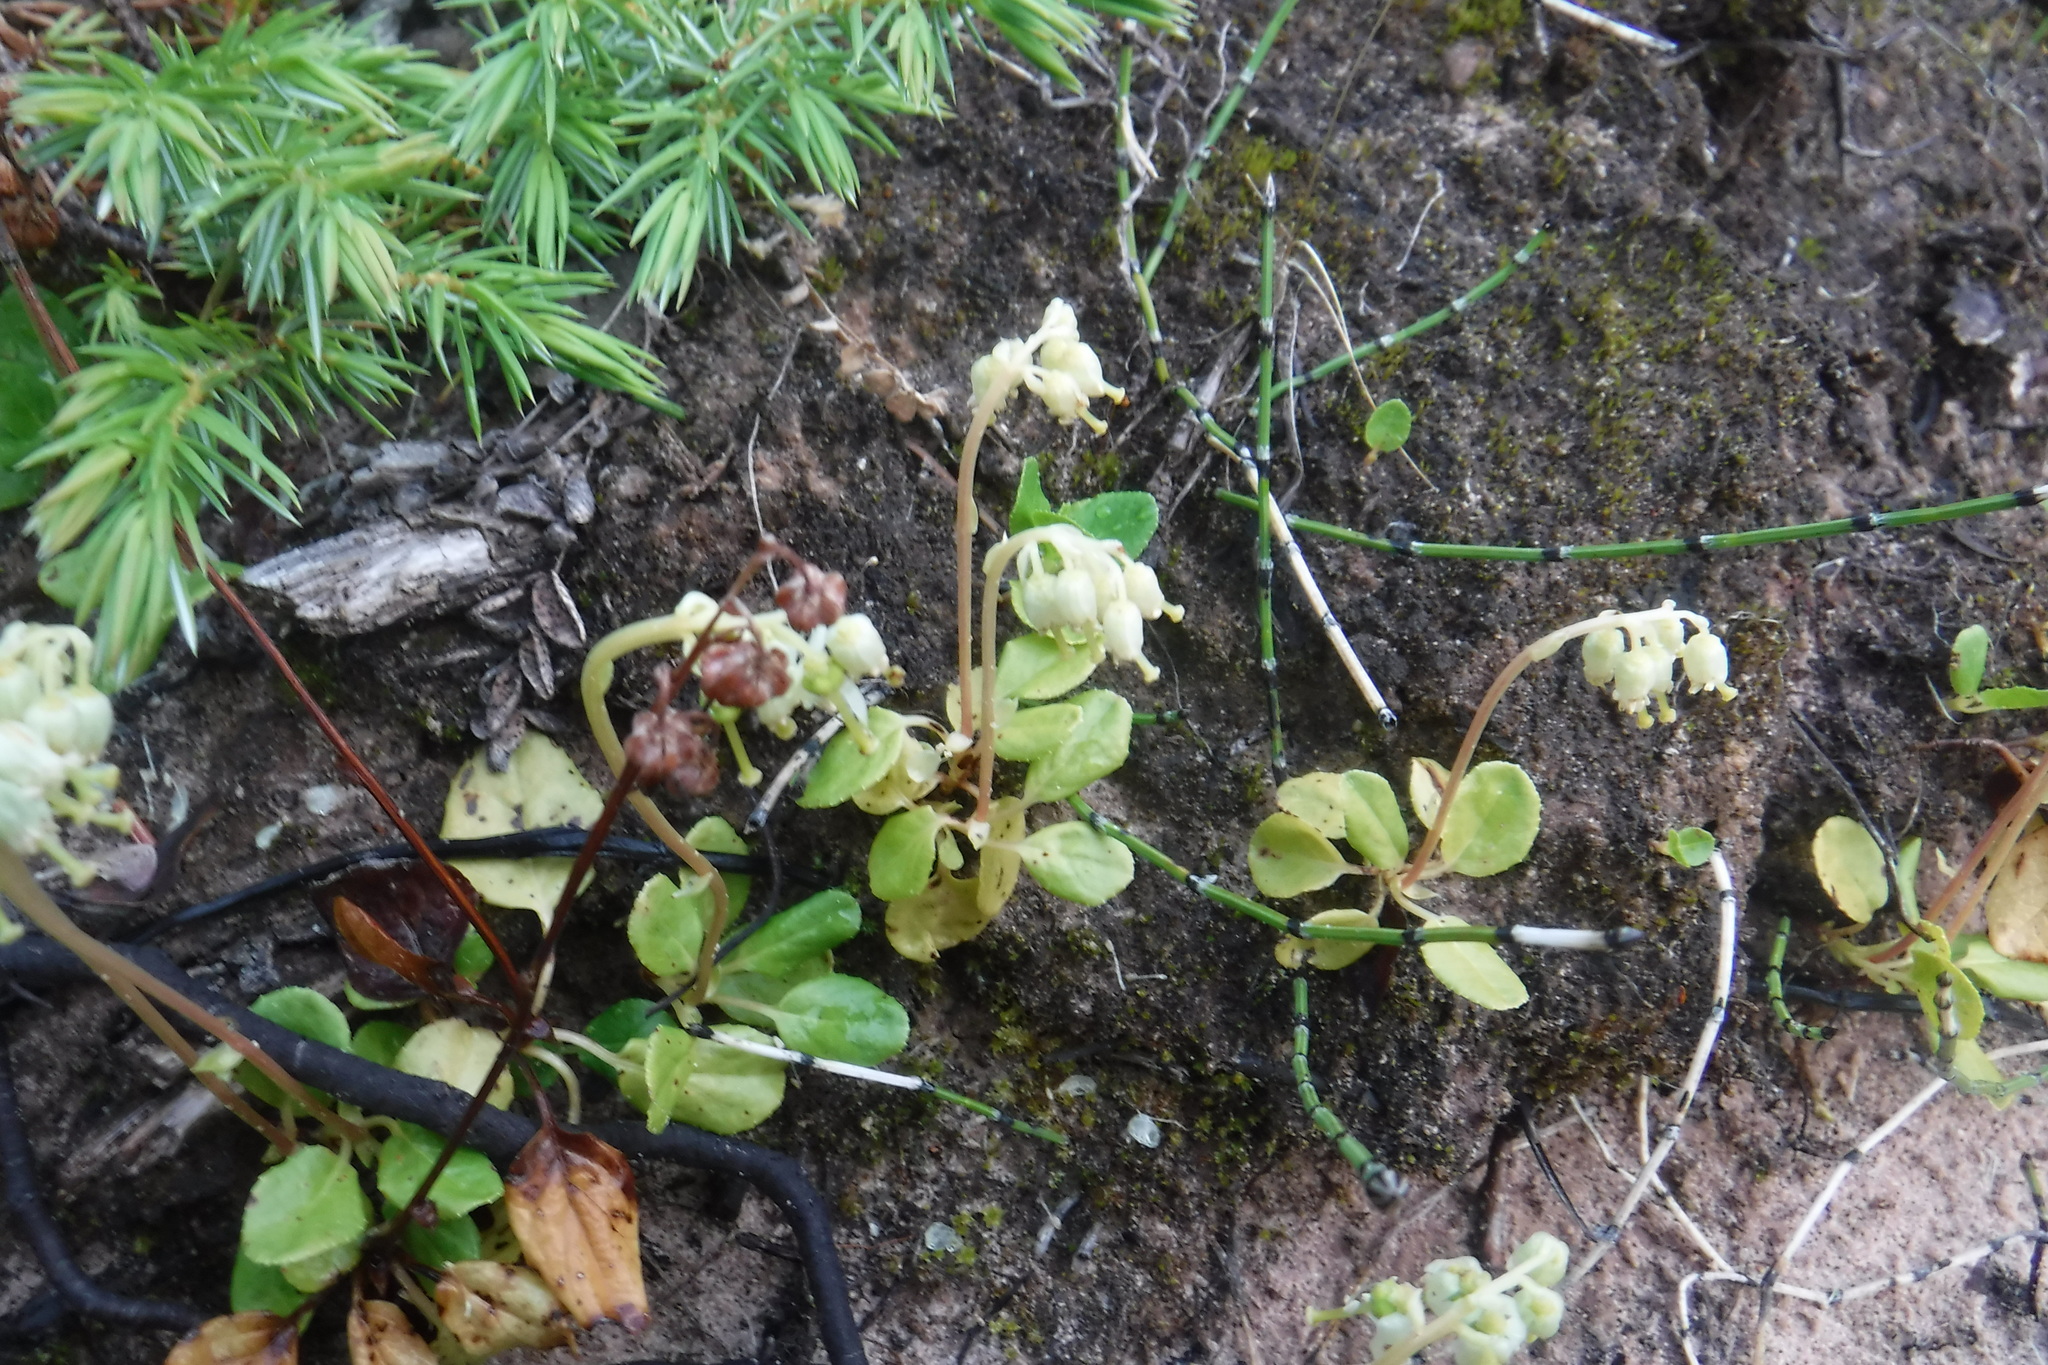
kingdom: Plantae
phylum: Tracheophyta
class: Magnoliopsida
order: Ericales
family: Ericaceae
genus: Orthilia
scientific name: Orthilia secunda
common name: One-sided orthilia
